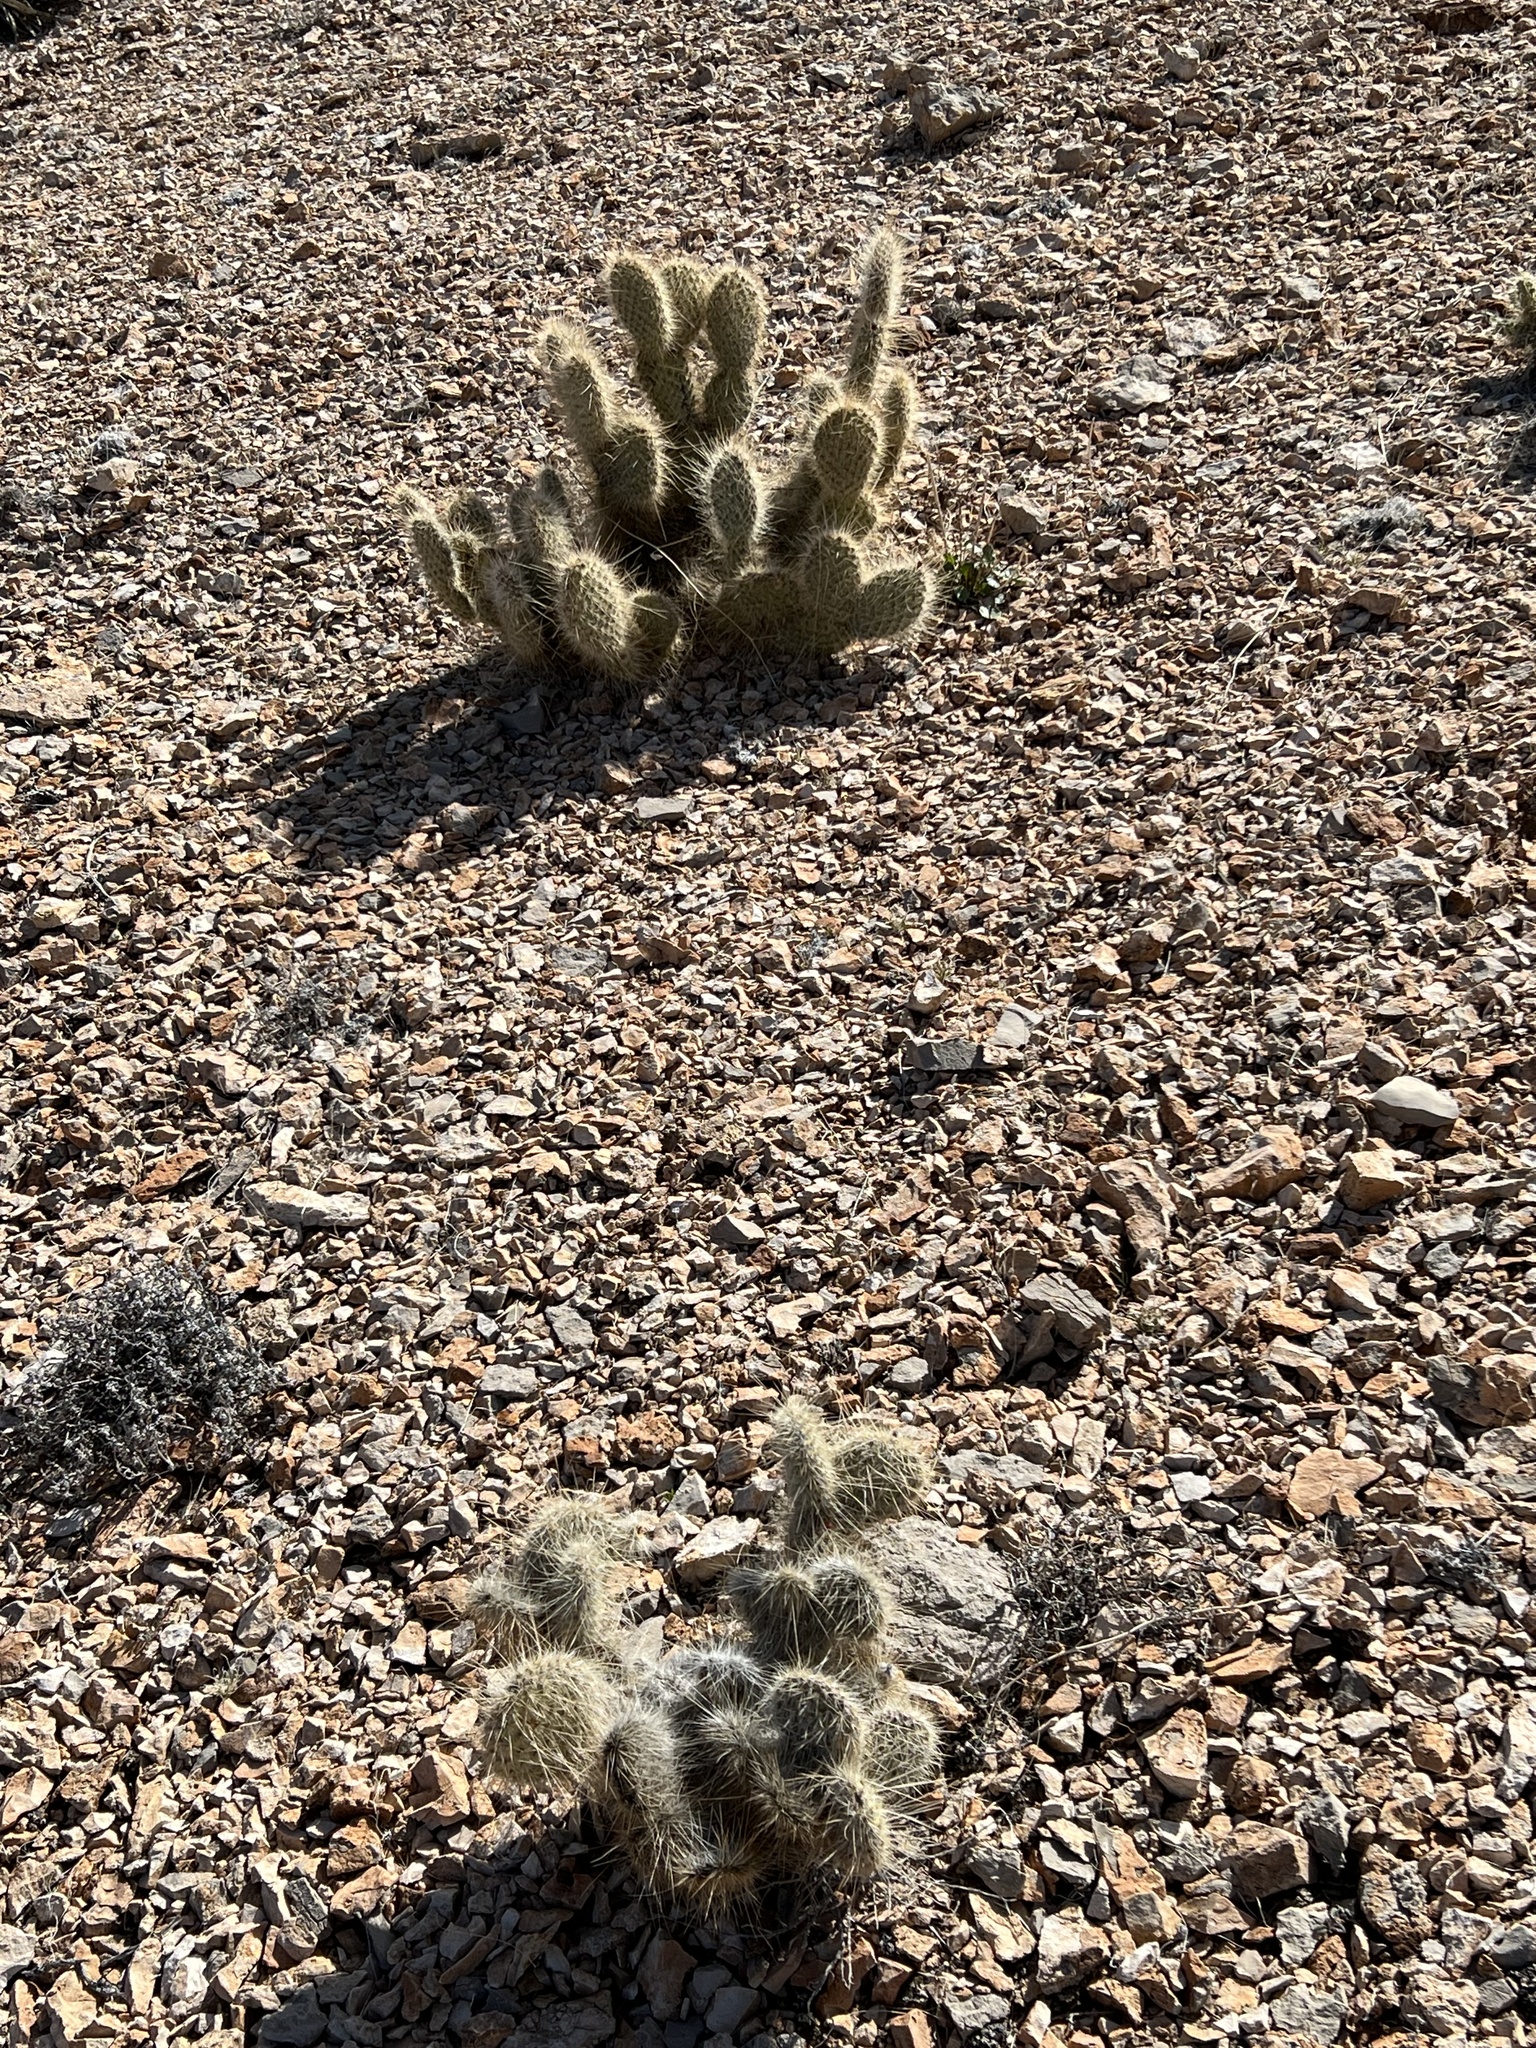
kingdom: Plantae
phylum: Tracheophyta
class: Magnoliopsida
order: Caryophyllales
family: Cactaceae
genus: Opuntia
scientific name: Opuntia polyacantha
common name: Plains prickly-pear
